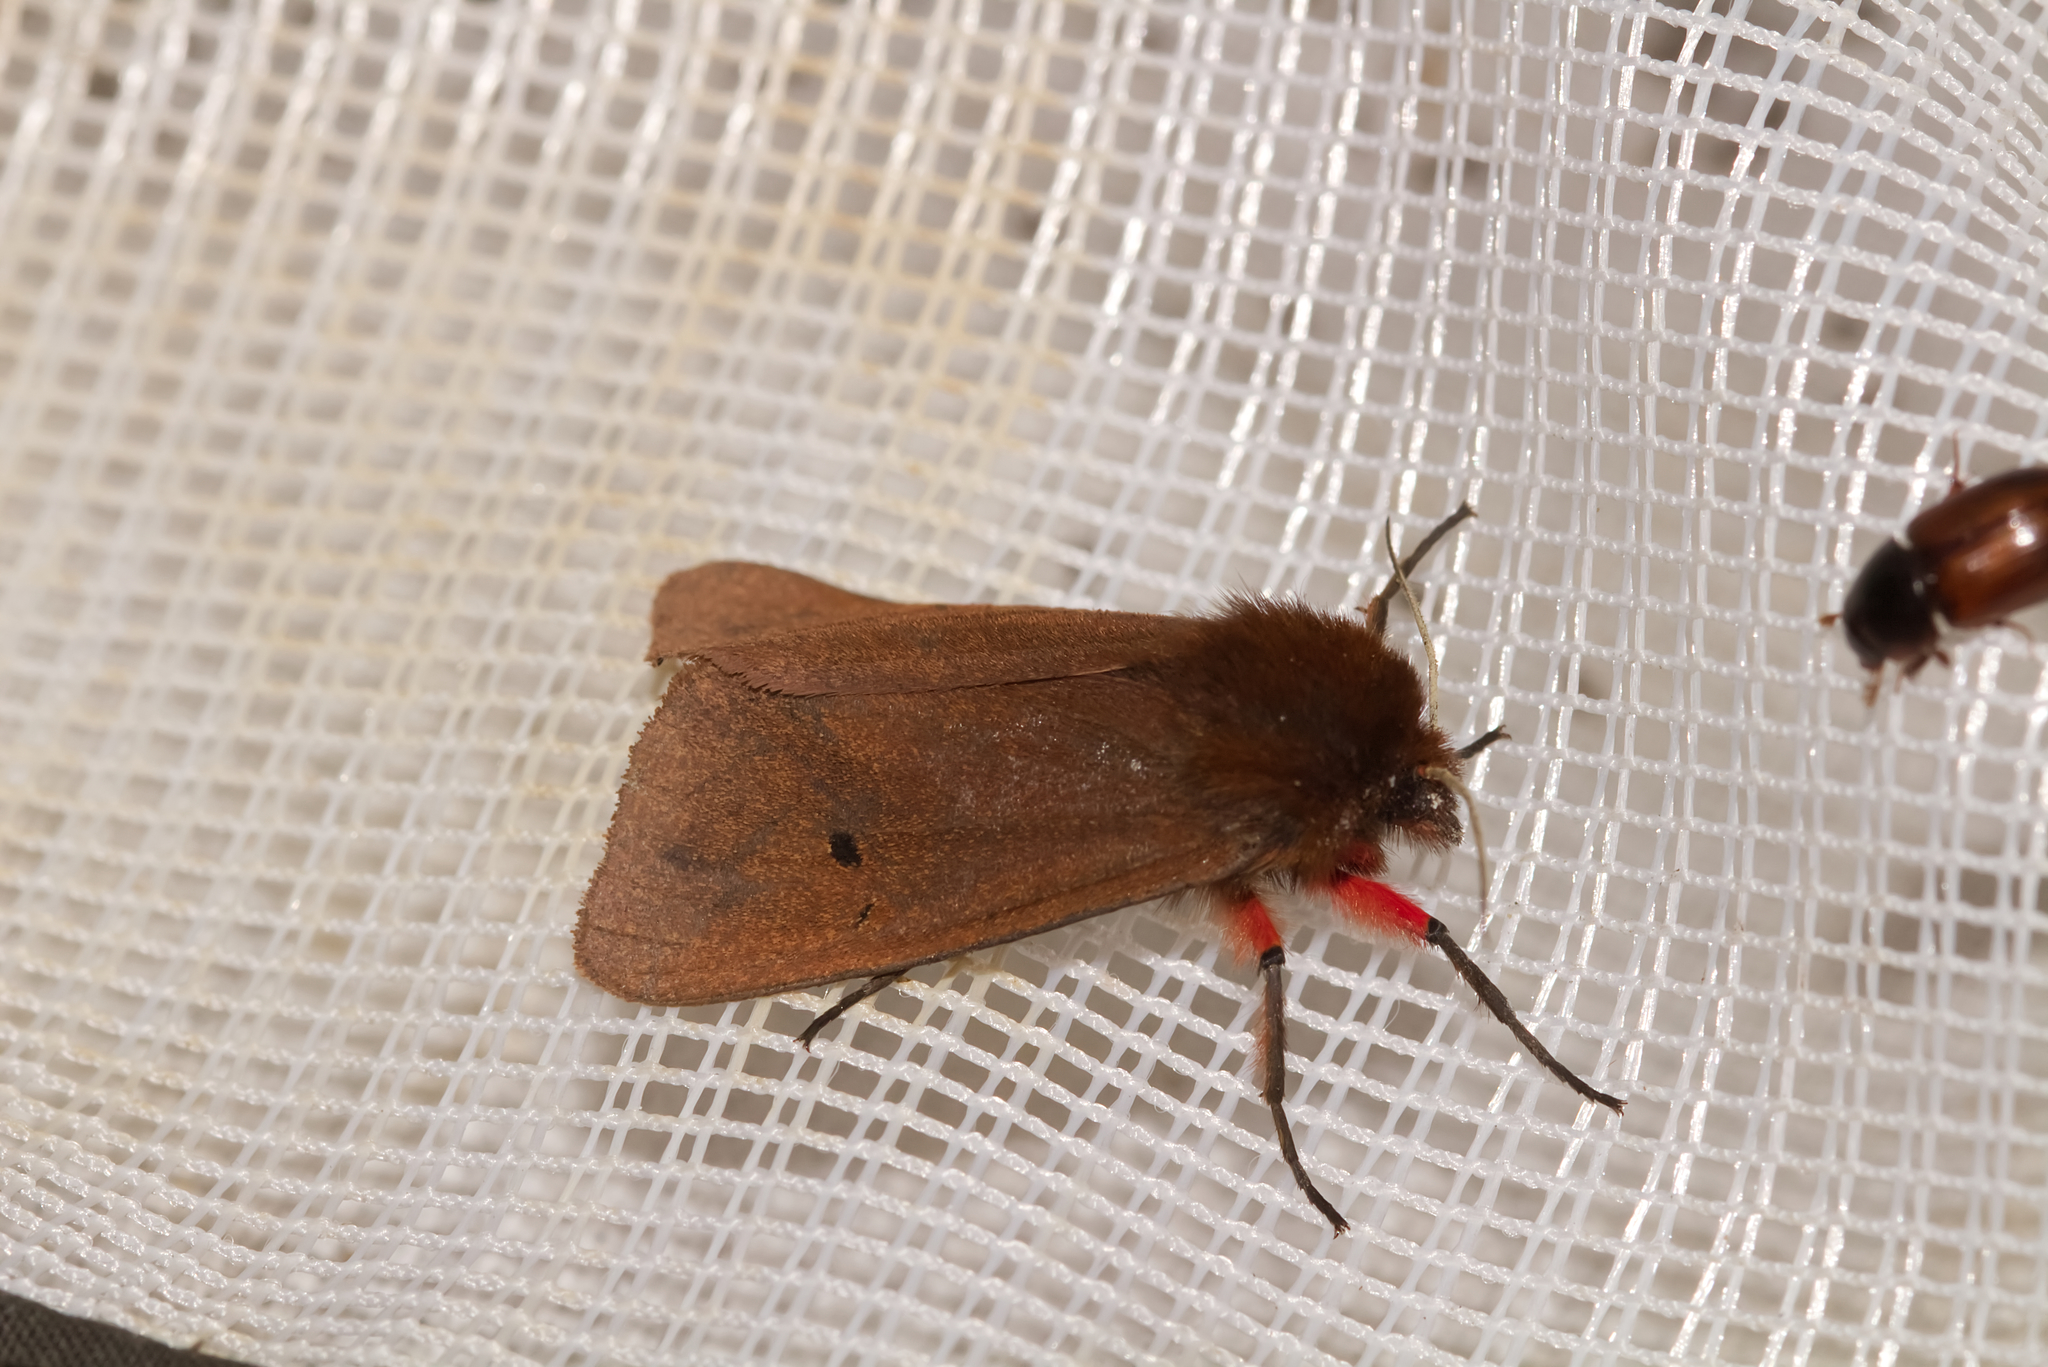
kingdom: Animalia
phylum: Arthropoda
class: Insecta
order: Lepidoptera
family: Erebidae
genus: Phragmatobia
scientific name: Phragmatobia fuliginosa
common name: Ruby tiger
